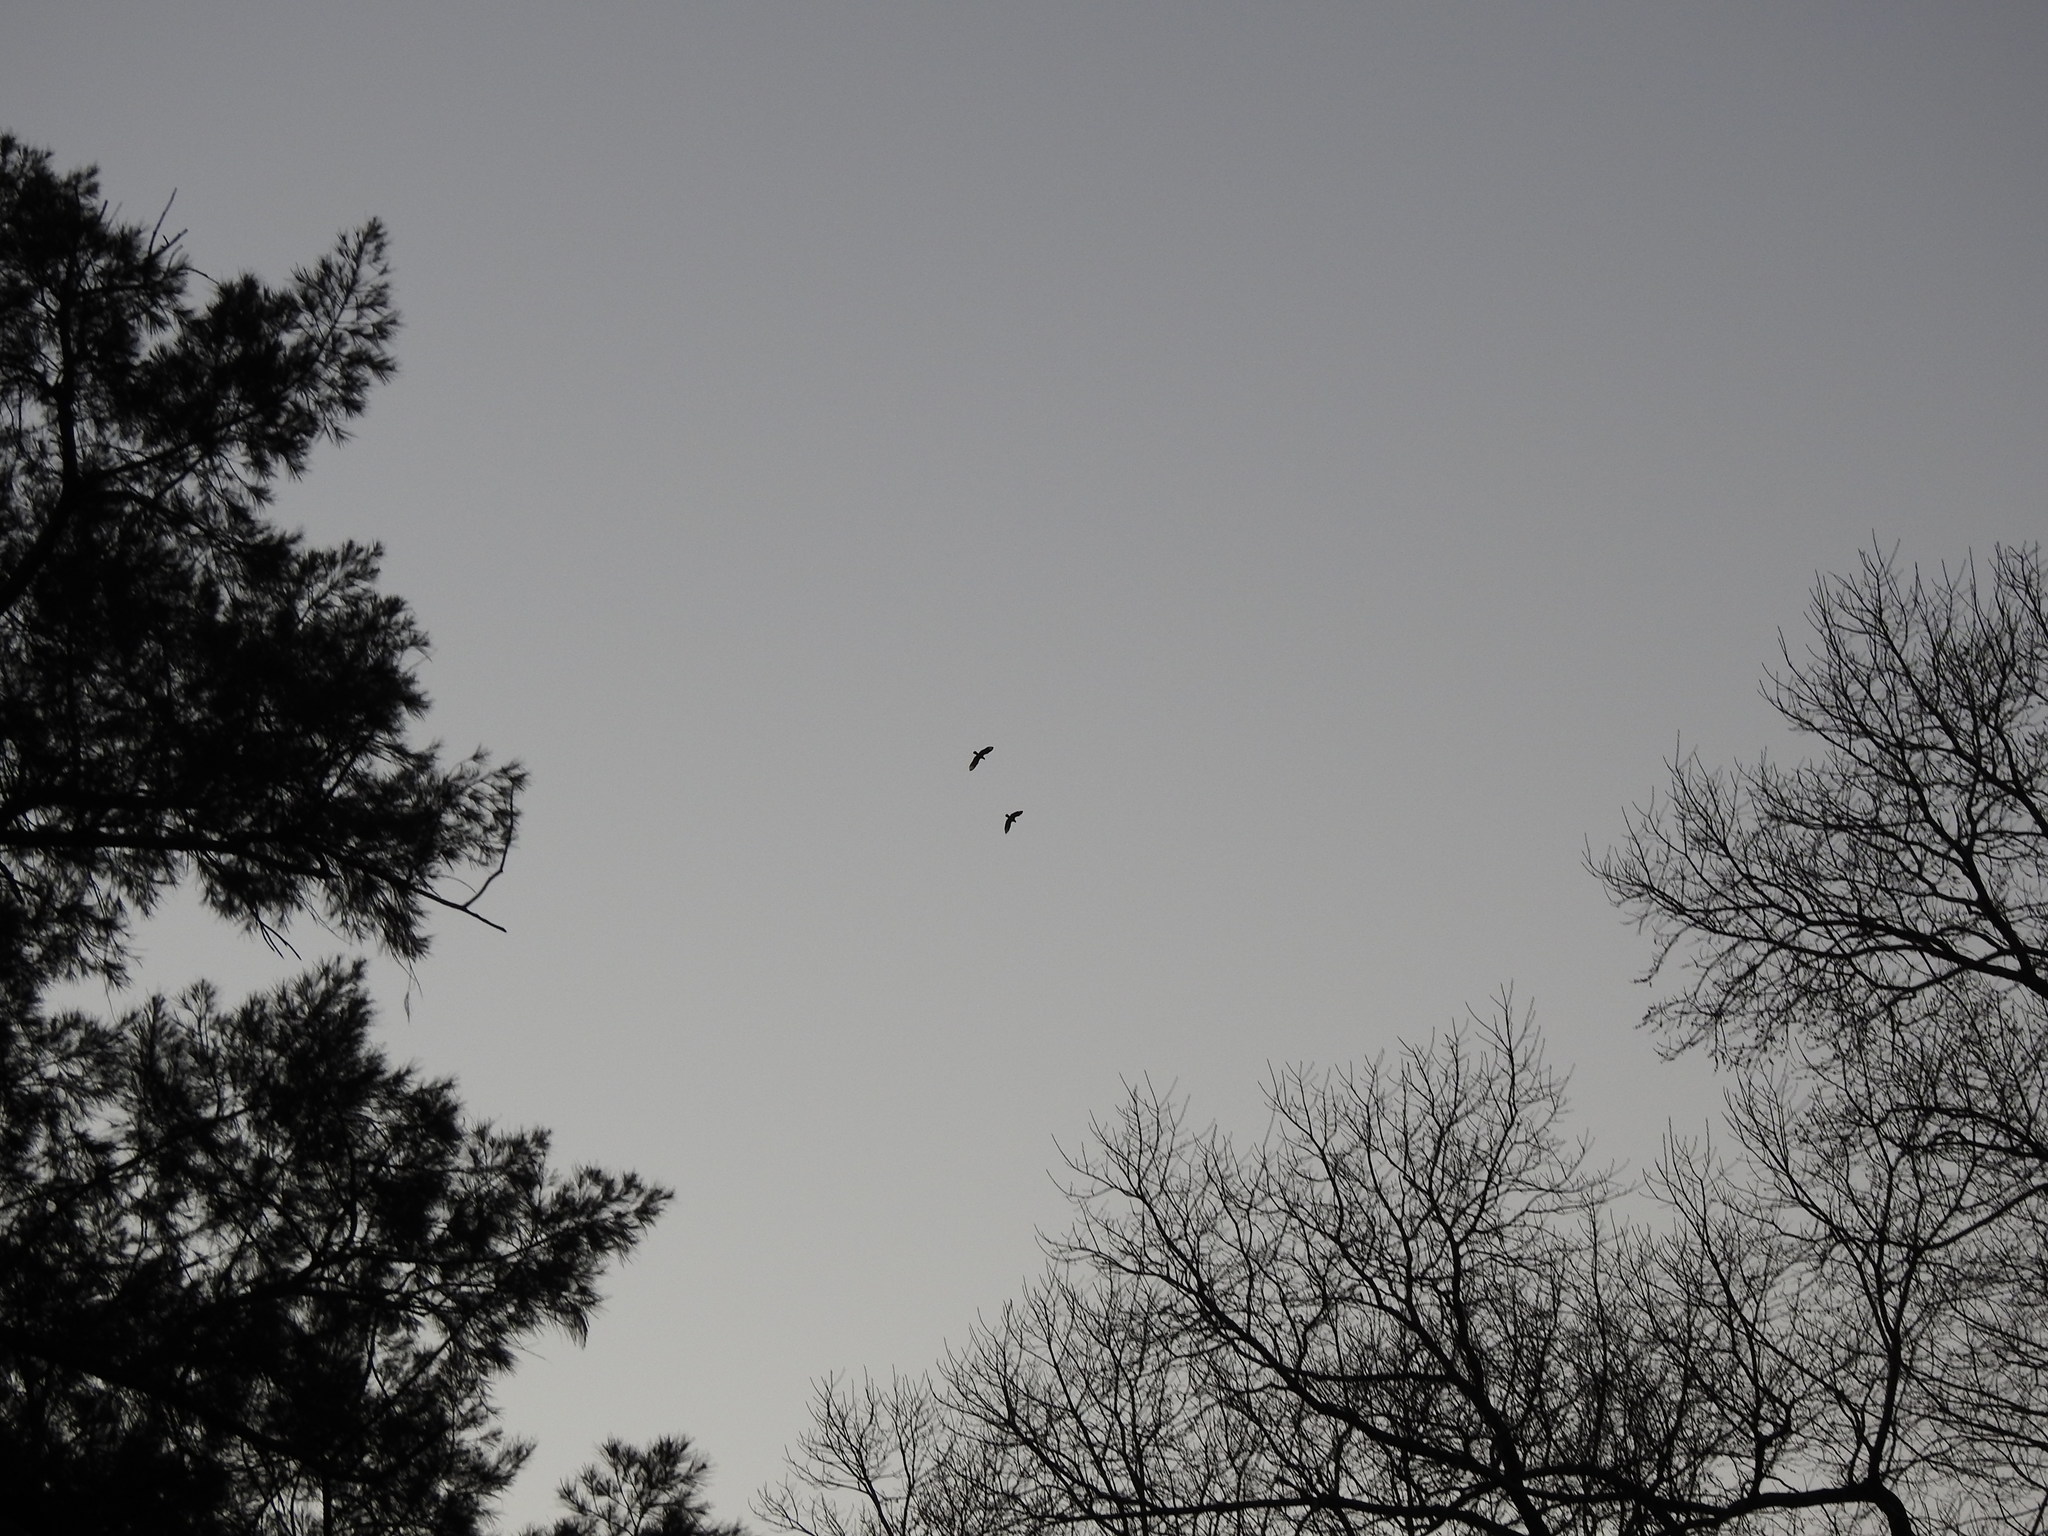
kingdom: Animalia
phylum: Chordata
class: Aves
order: Falconiformes
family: Falconidae
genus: Caracara
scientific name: Caracara plancus
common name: Southern caracara
